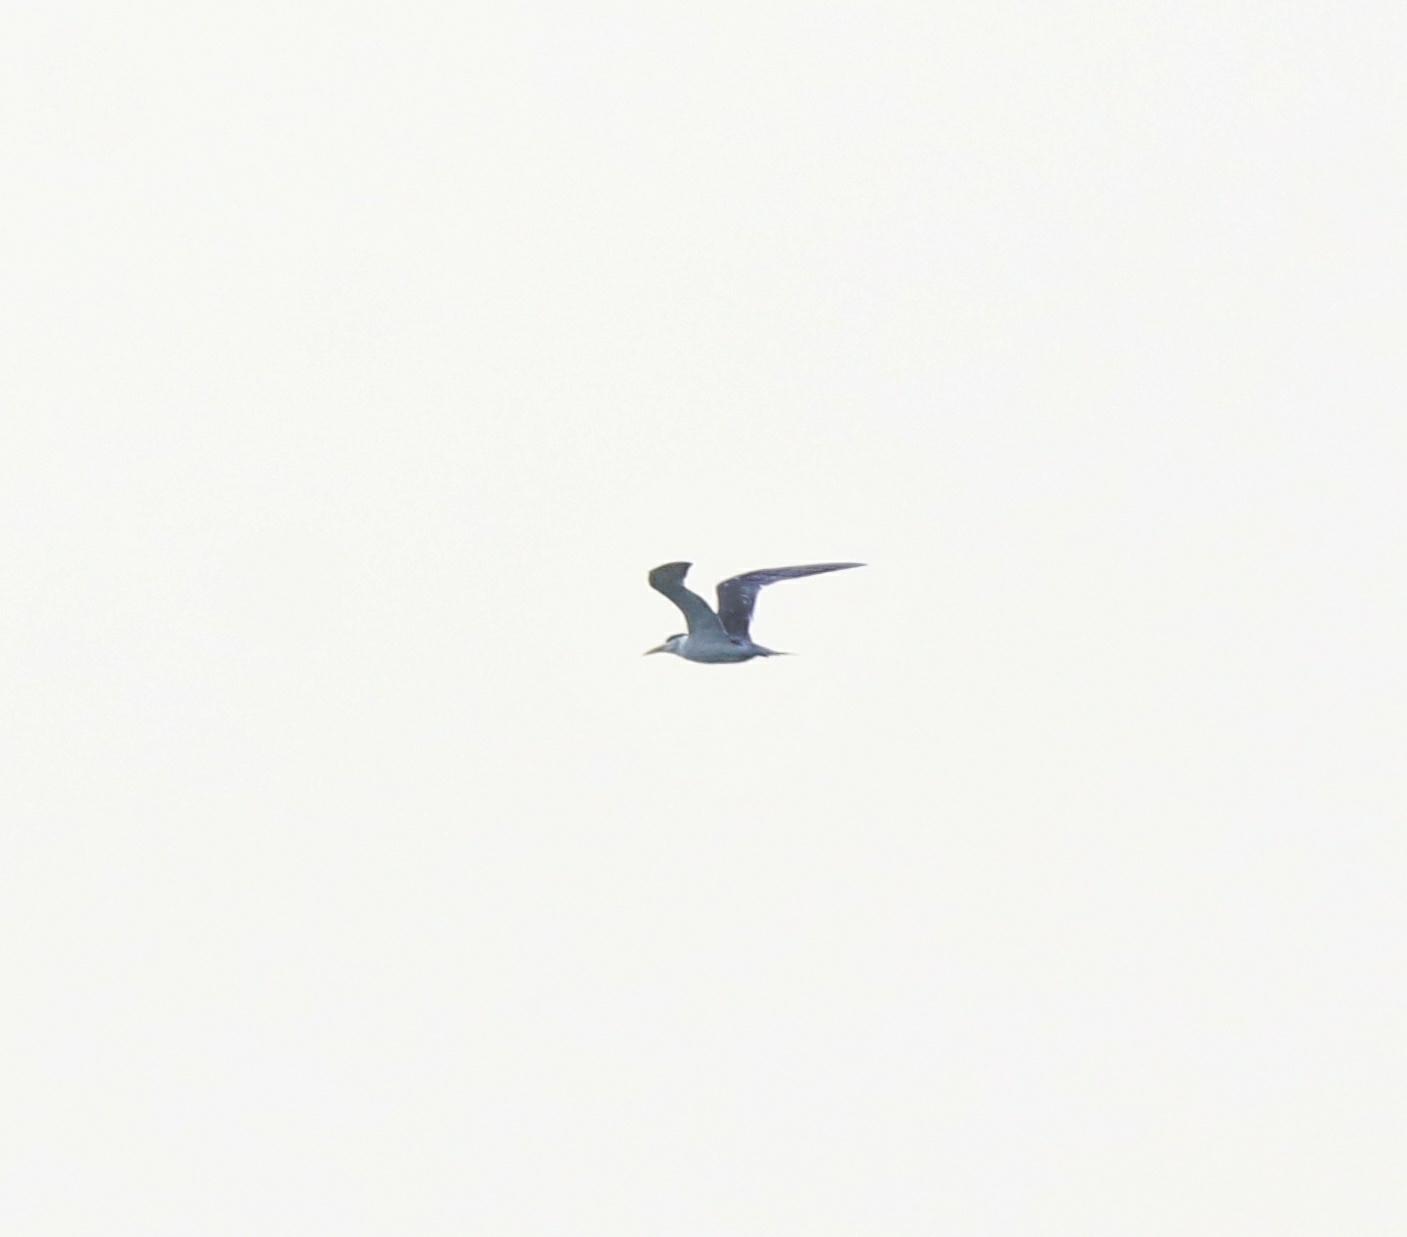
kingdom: Animalia
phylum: Chordata
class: Aves
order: Charadriiformes
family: Laridae
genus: Thalasseus
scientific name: Thalasseus bergii
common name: Greater crested tern
